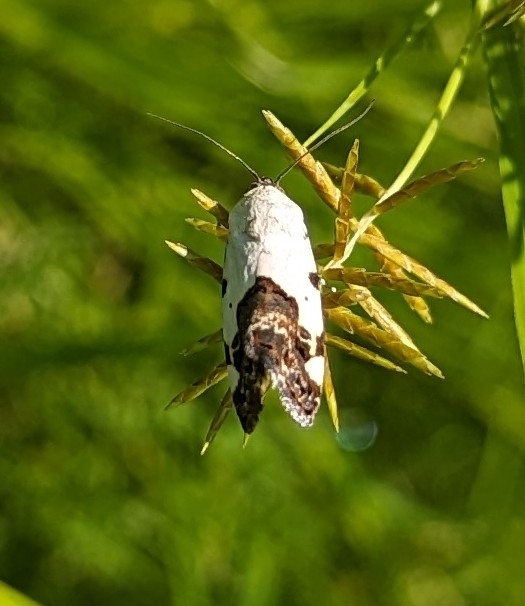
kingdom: Animalia
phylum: Arthropoda
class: Insecta
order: Lepidoptera
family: Noctuidae
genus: Acontia
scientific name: Acontia aprica
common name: Nun
